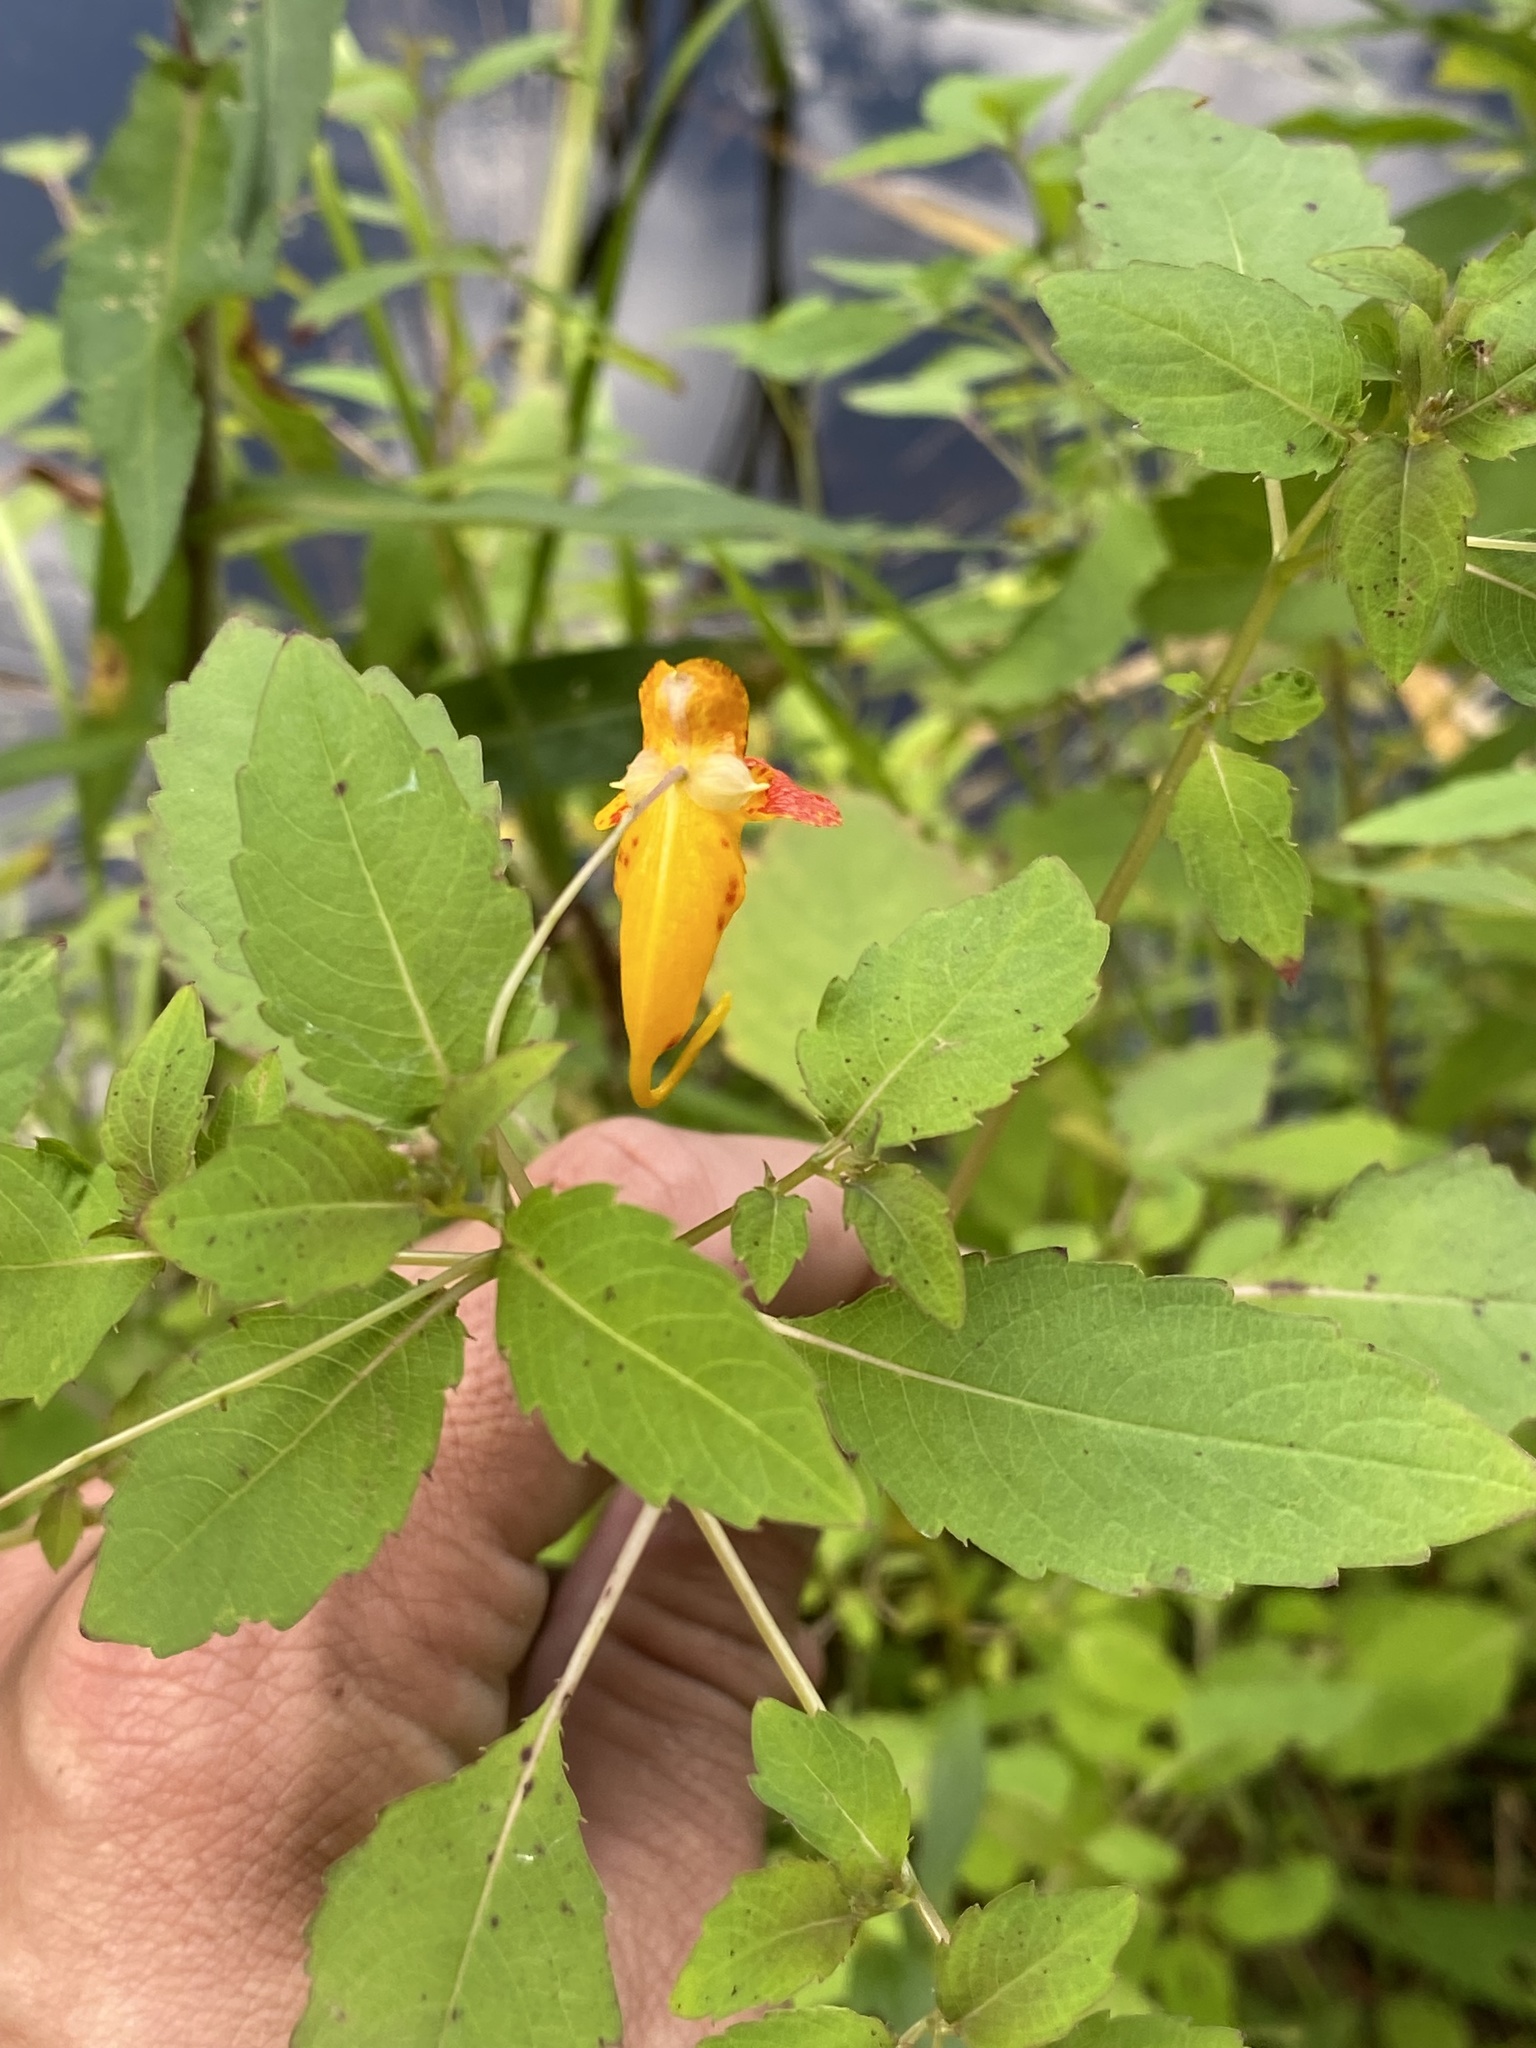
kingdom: Plantae
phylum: Tracheophyta
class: Magnoliopsida
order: Ericales
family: Balsaminaceae
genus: Impatiens
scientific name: Impatiens capensis
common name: Orange balsam
